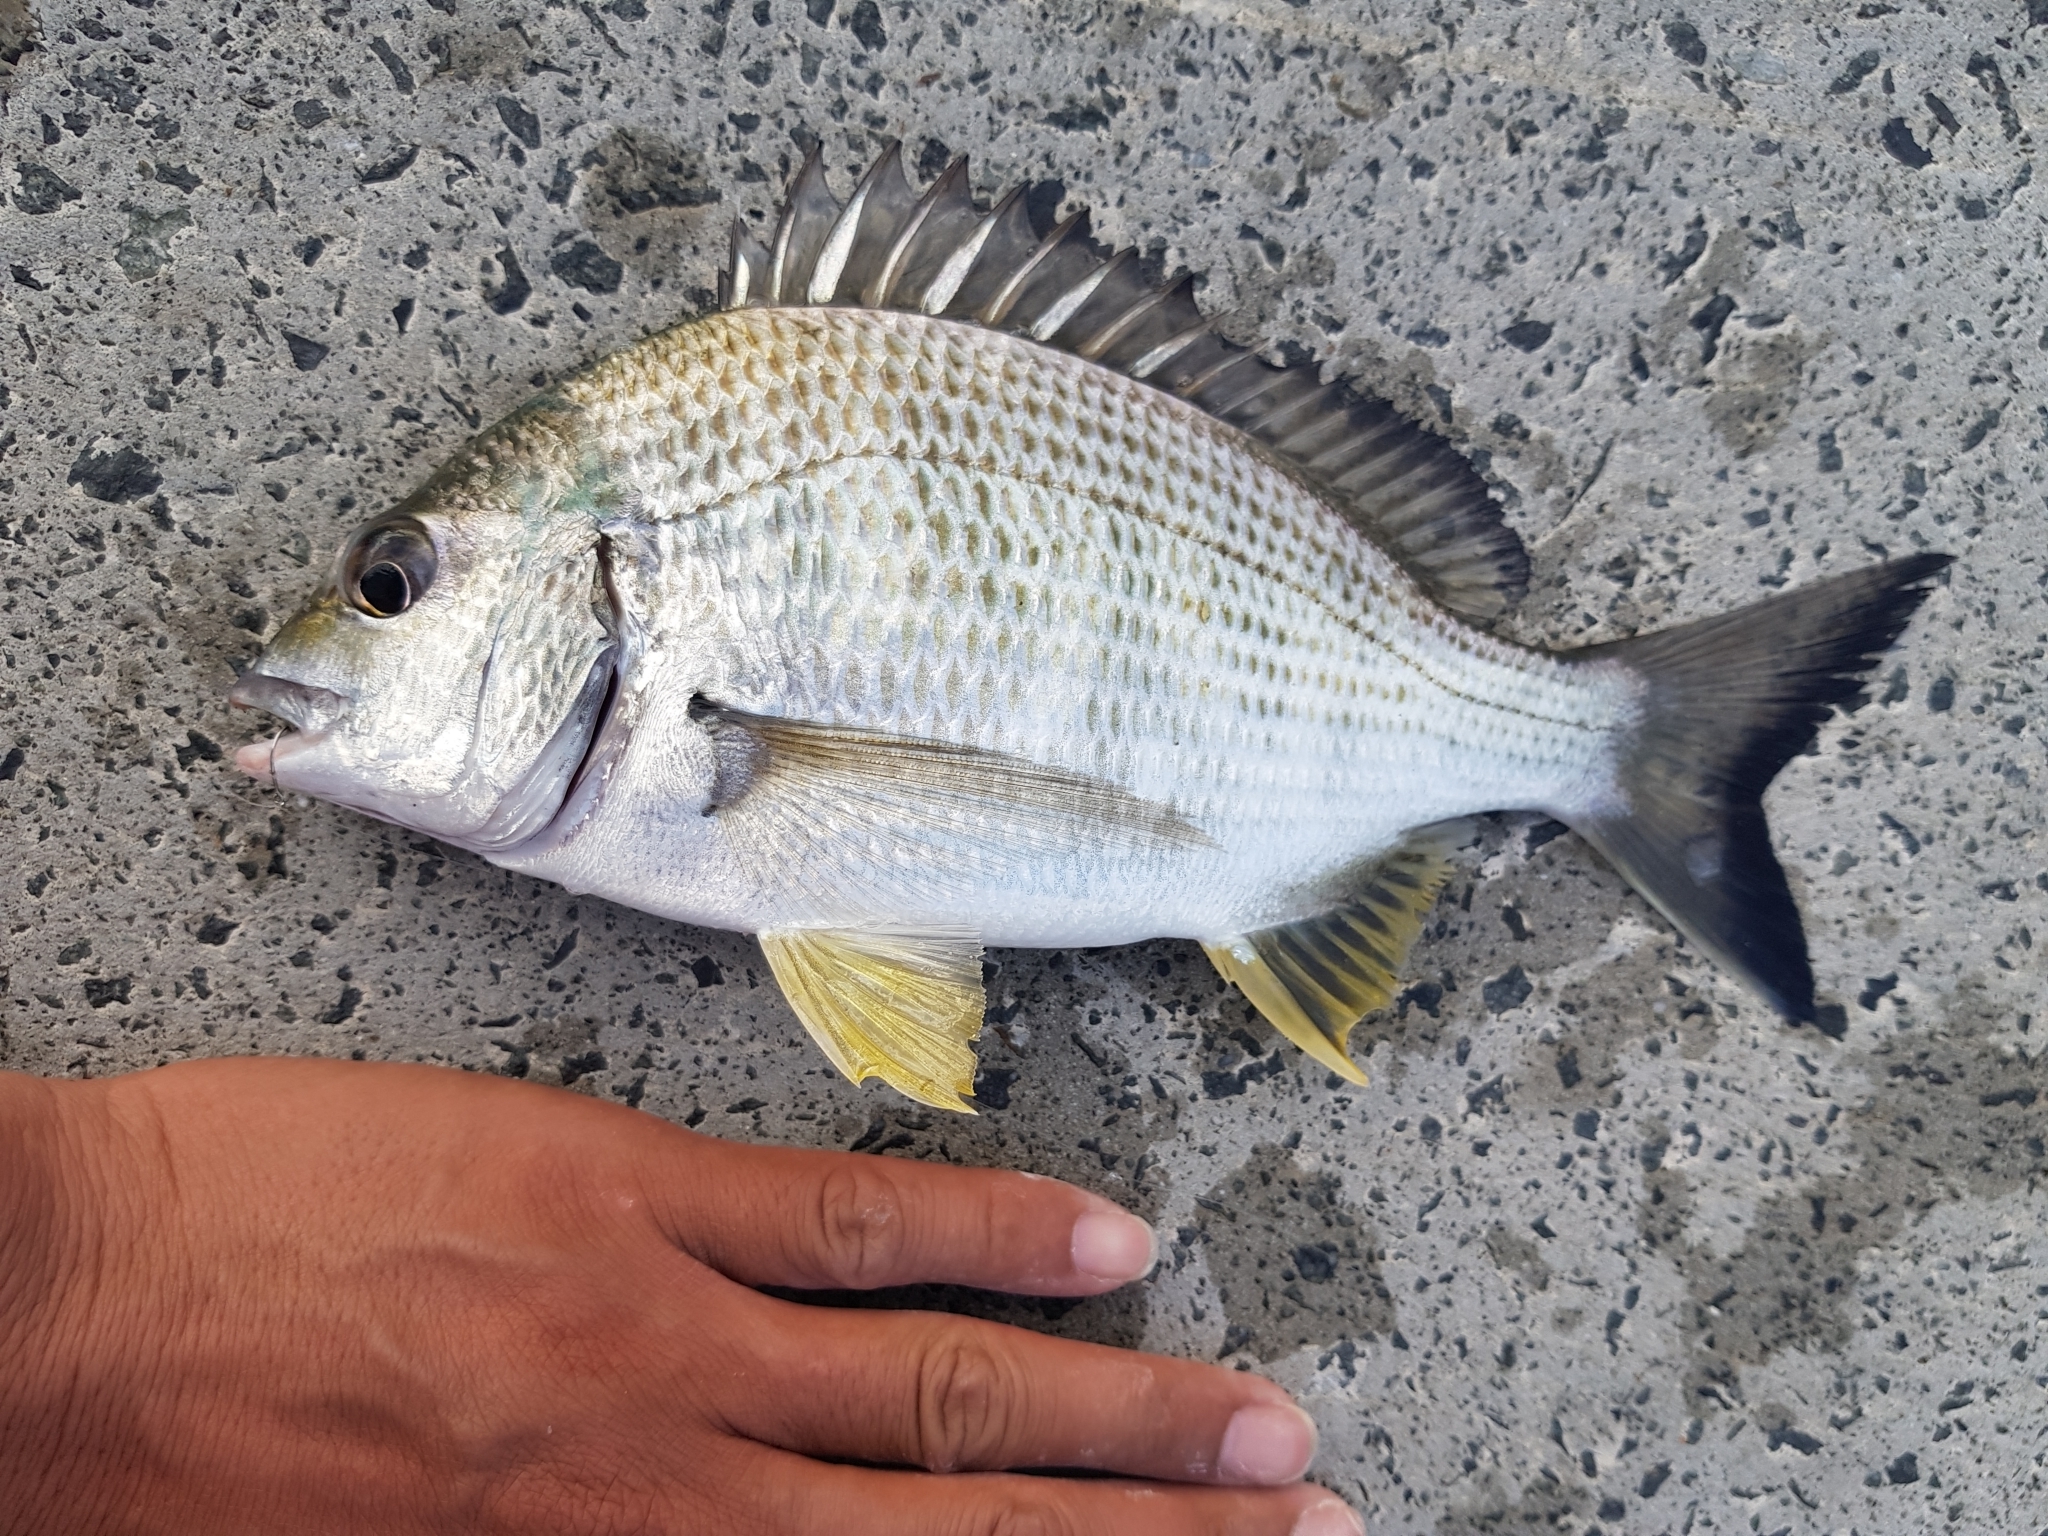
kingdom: Animalia
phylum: Chordata
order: Perciformes
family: Sparidae
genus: Acanthopagrus
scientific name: Acanthopagrus australis
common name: Surf bream
